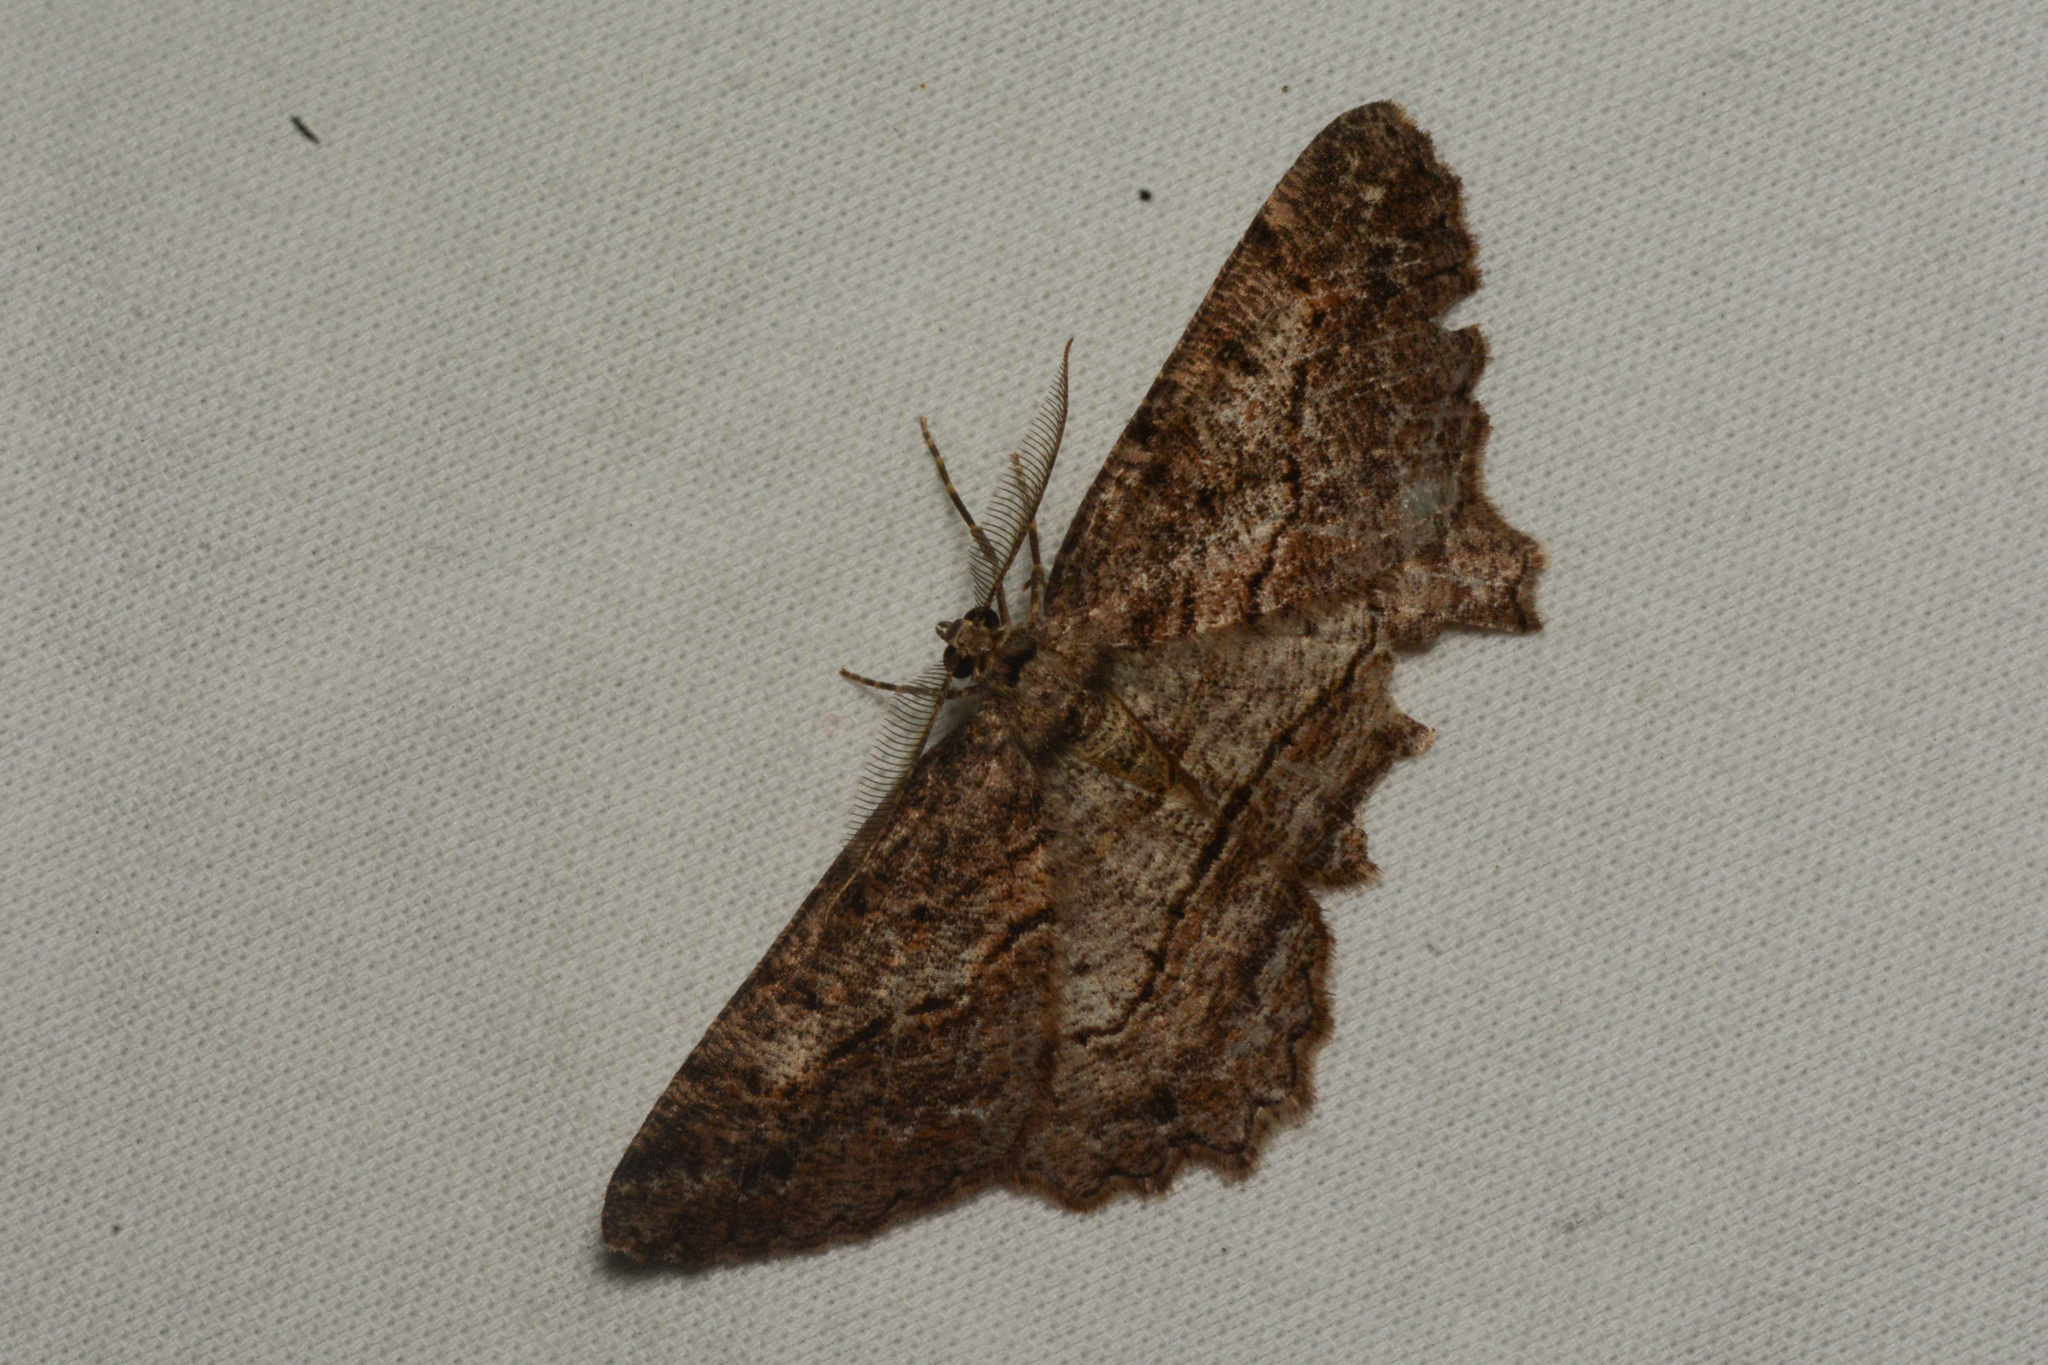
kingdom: Animalia
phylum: Arthropoda
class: Insecta
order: Lepidoptera
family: Geometridae
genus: Neoalcis
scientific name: Neoalcis californiaria
